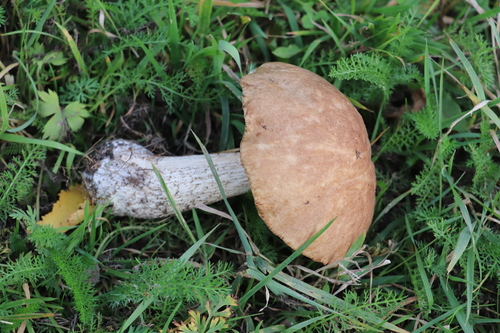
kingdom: Fungi
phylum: Basidiomycota
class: Agaricomycetes
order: Boletales
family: Boletaceae
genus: Leccinum
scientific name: Leccinum scabrum
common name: Blushing bolete
